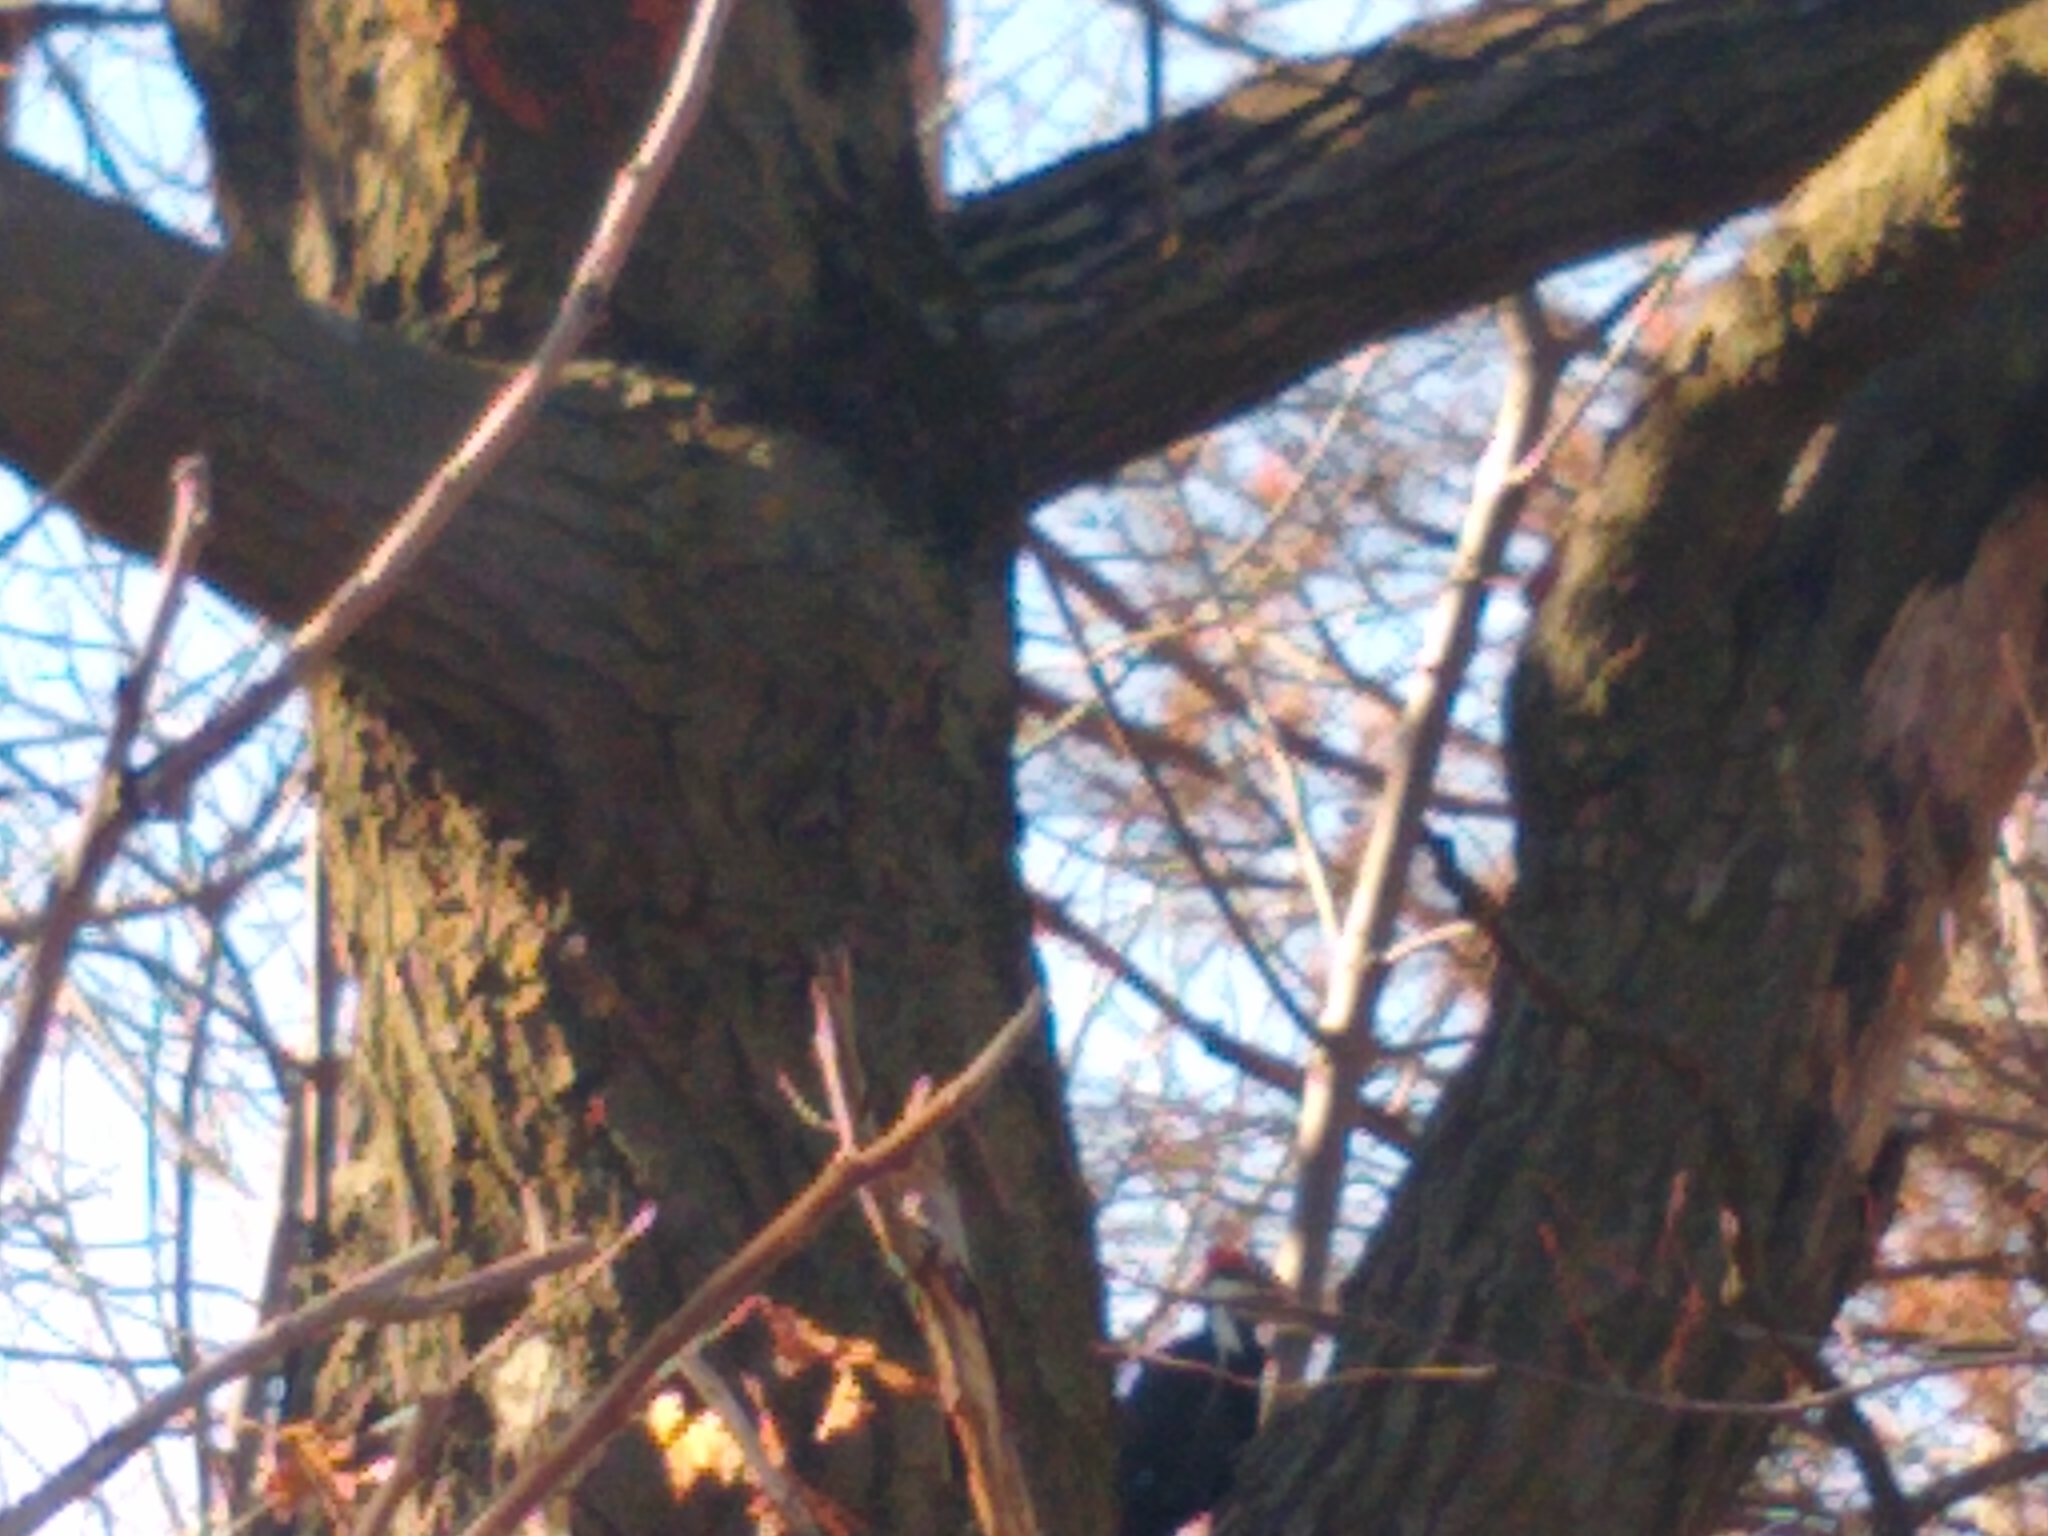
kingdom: Animalia
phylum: Chordata
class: Aves
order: Piciformes
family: Picidae
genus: Dryocopus
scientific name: Dryocopus pileatus
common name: Pileated woodpecker
